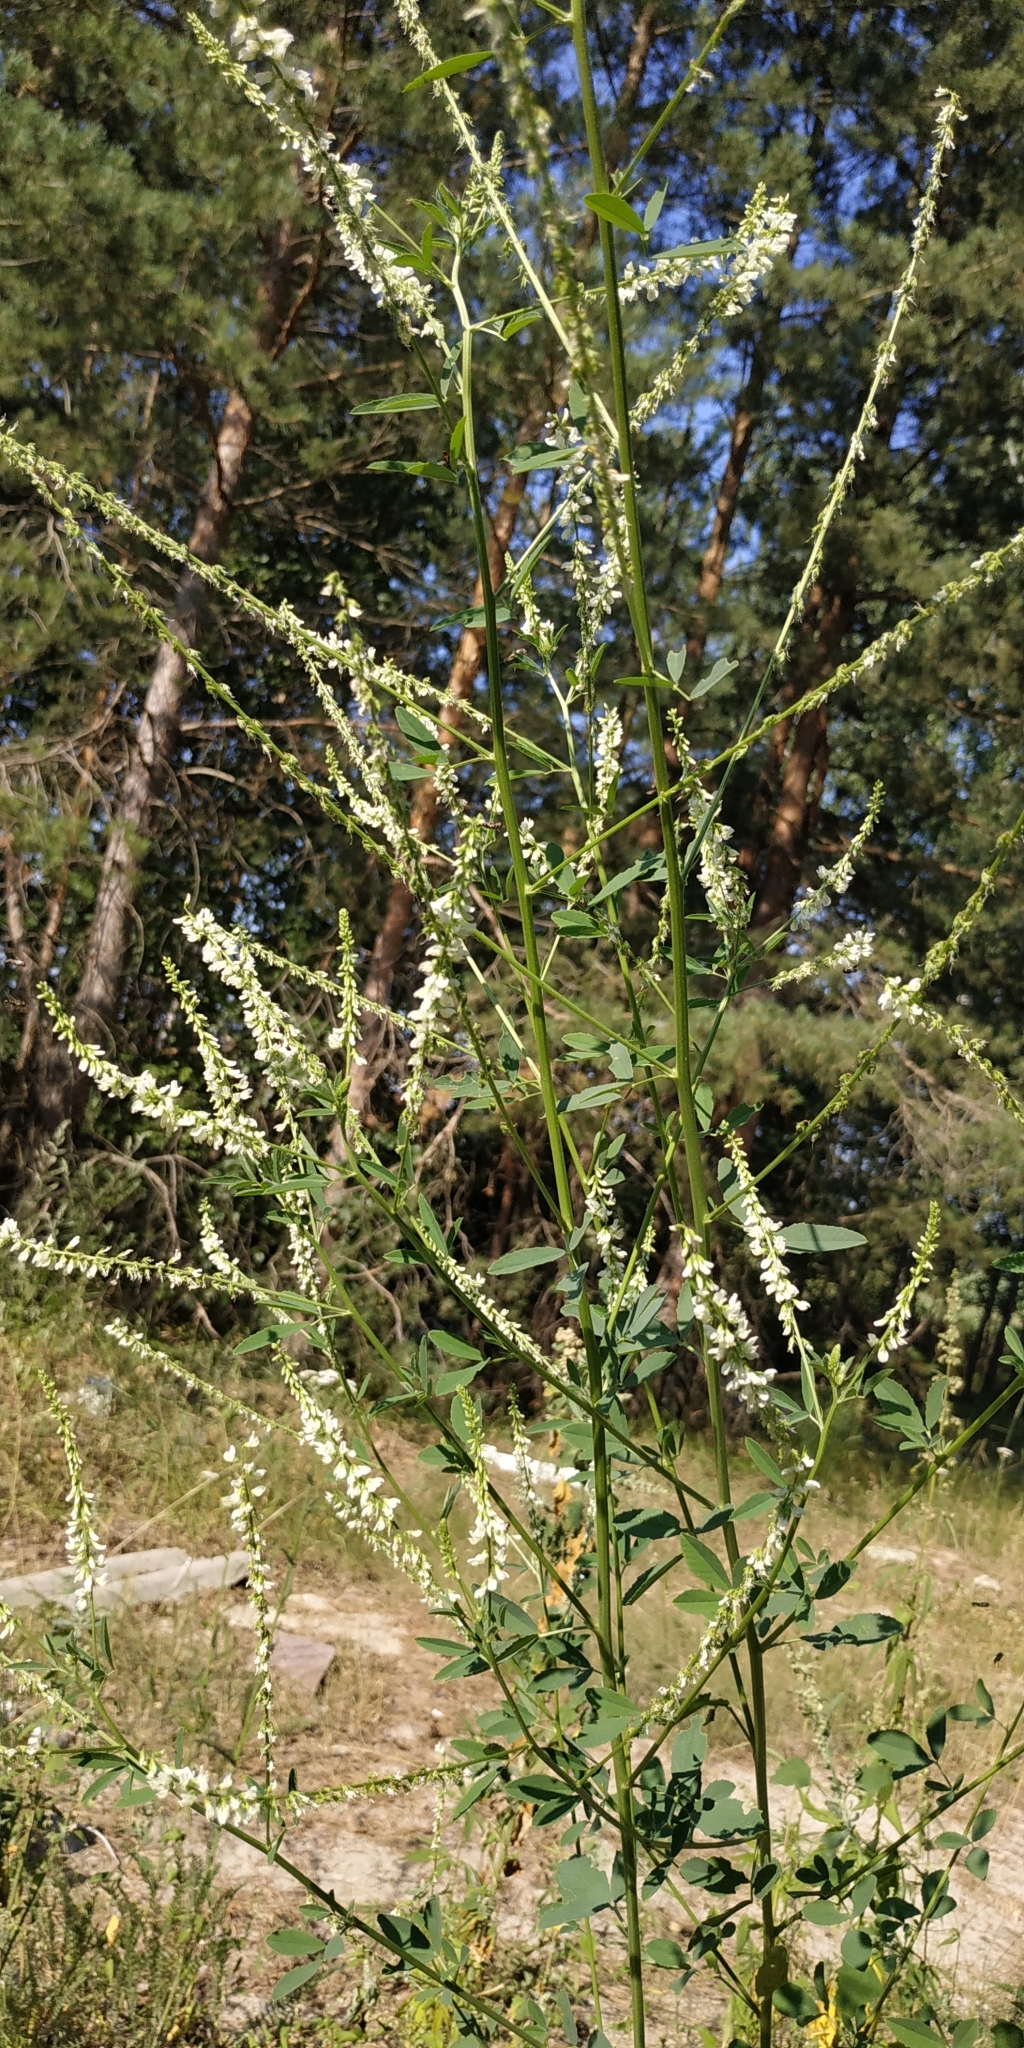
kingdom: Plantae
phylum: Tracheophyta
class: Magnoliopsida
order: Fabales
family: Fabaceae
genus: Melilotus
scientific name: Melilotus albus
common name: White melilot
